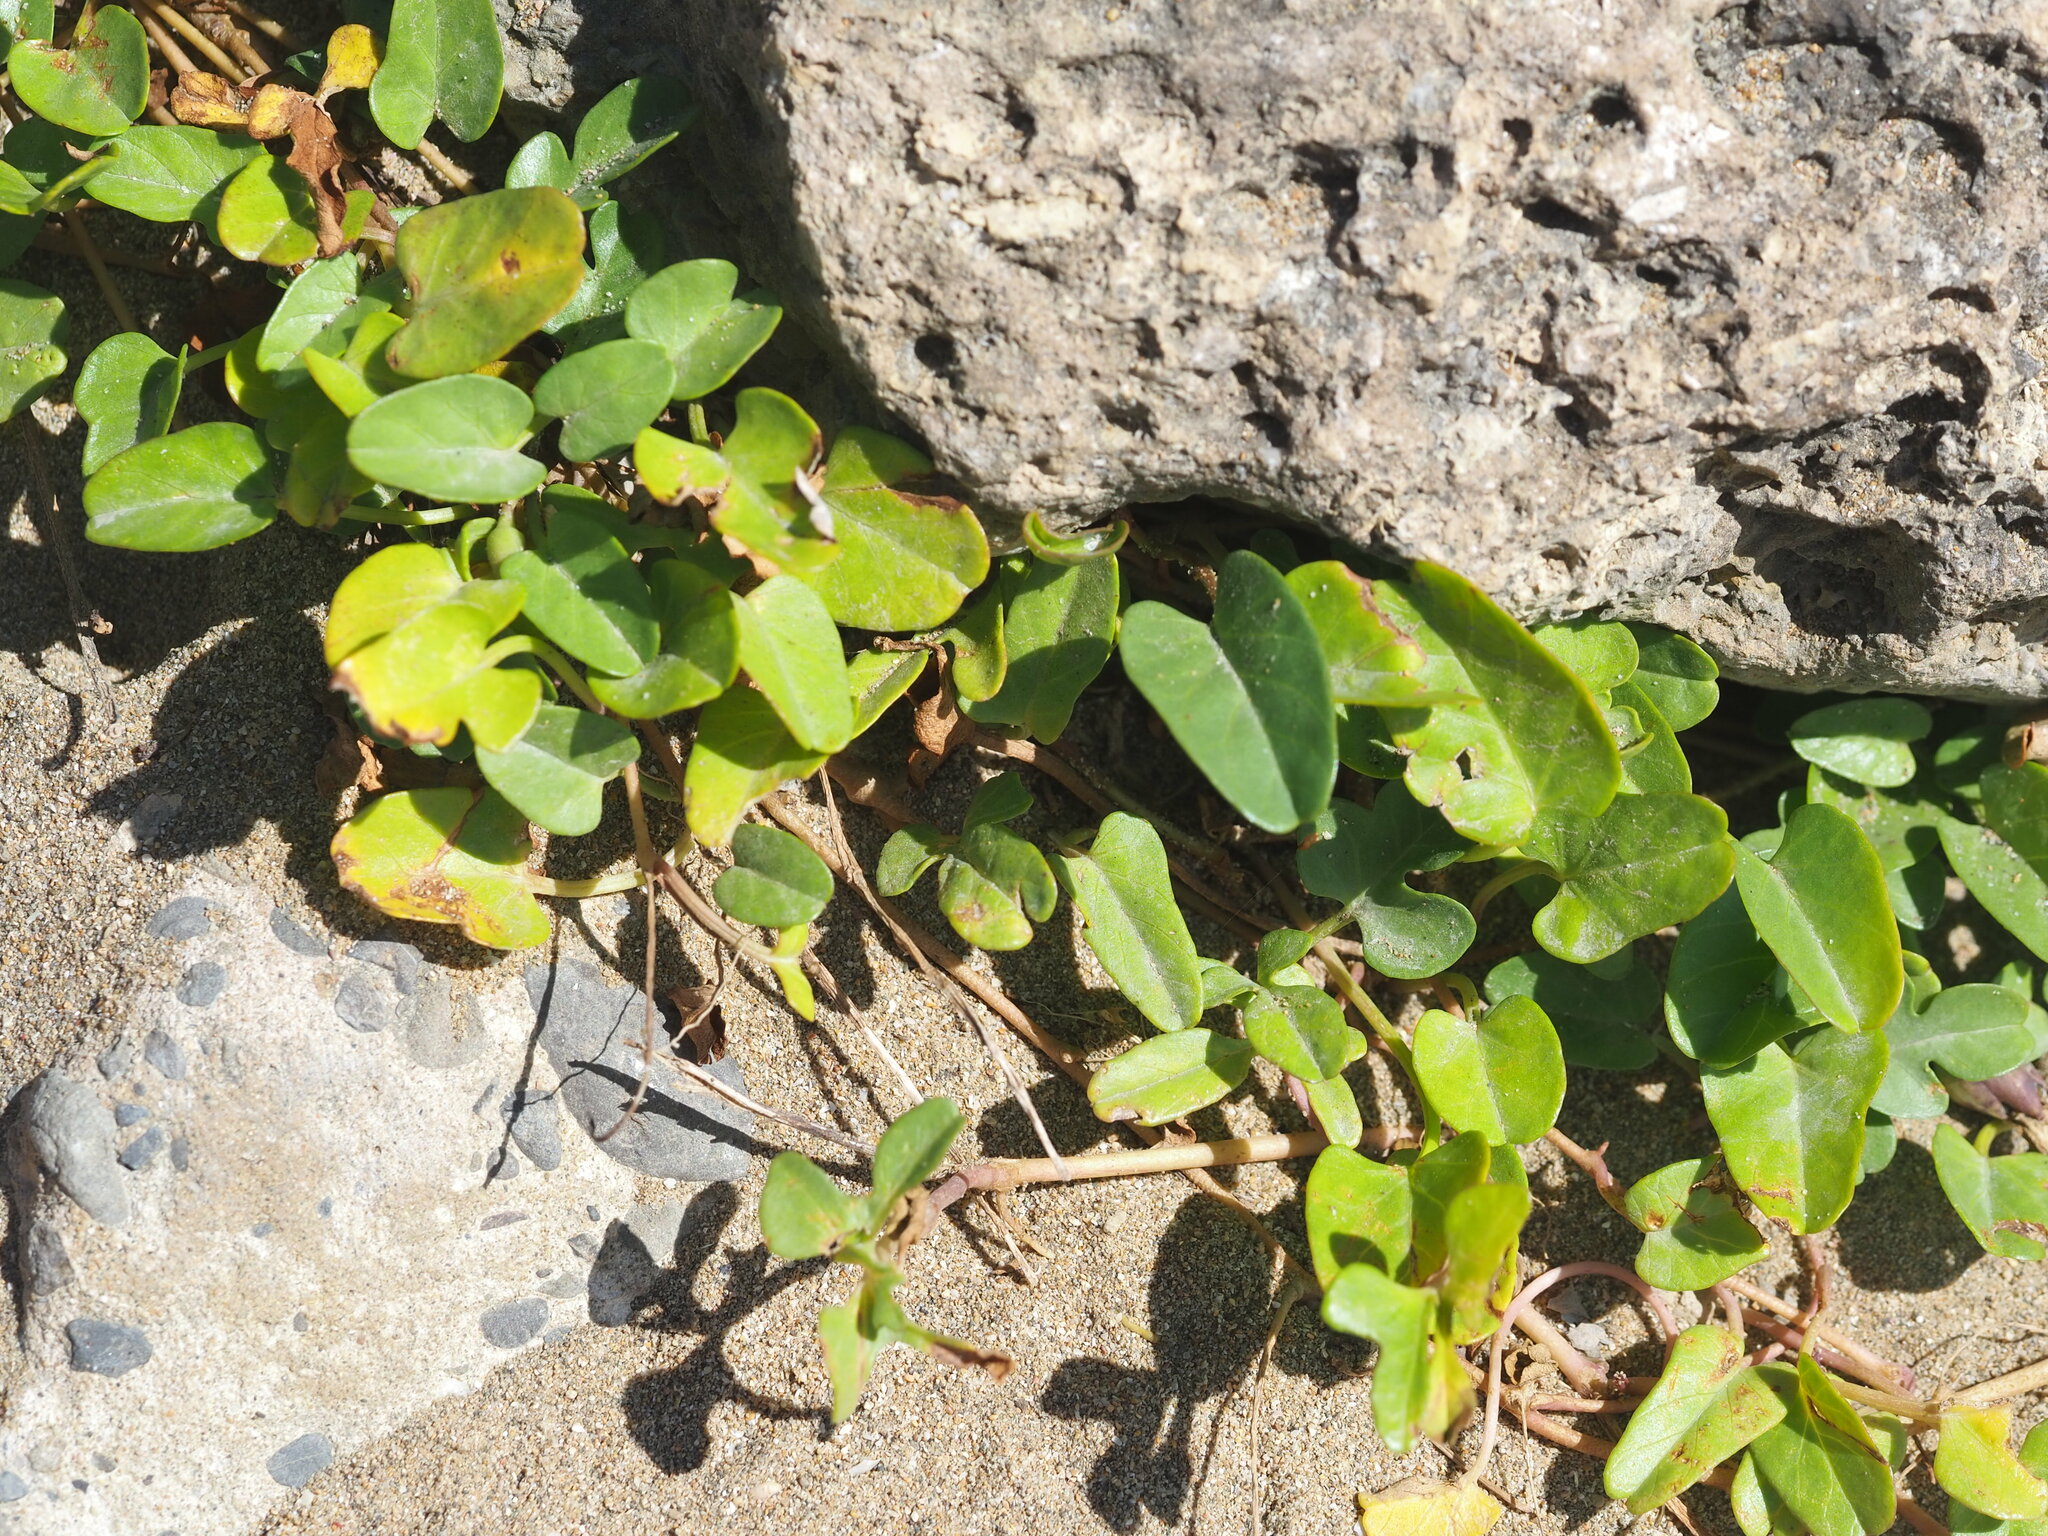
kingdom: Plantae
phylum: Tracheophyta
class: Magnoliopsida
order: Solanales
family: Convolvulaceae
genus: Ipomoea
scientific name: Ipomoea imperati
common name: Fiddle-leaf morning-glory
